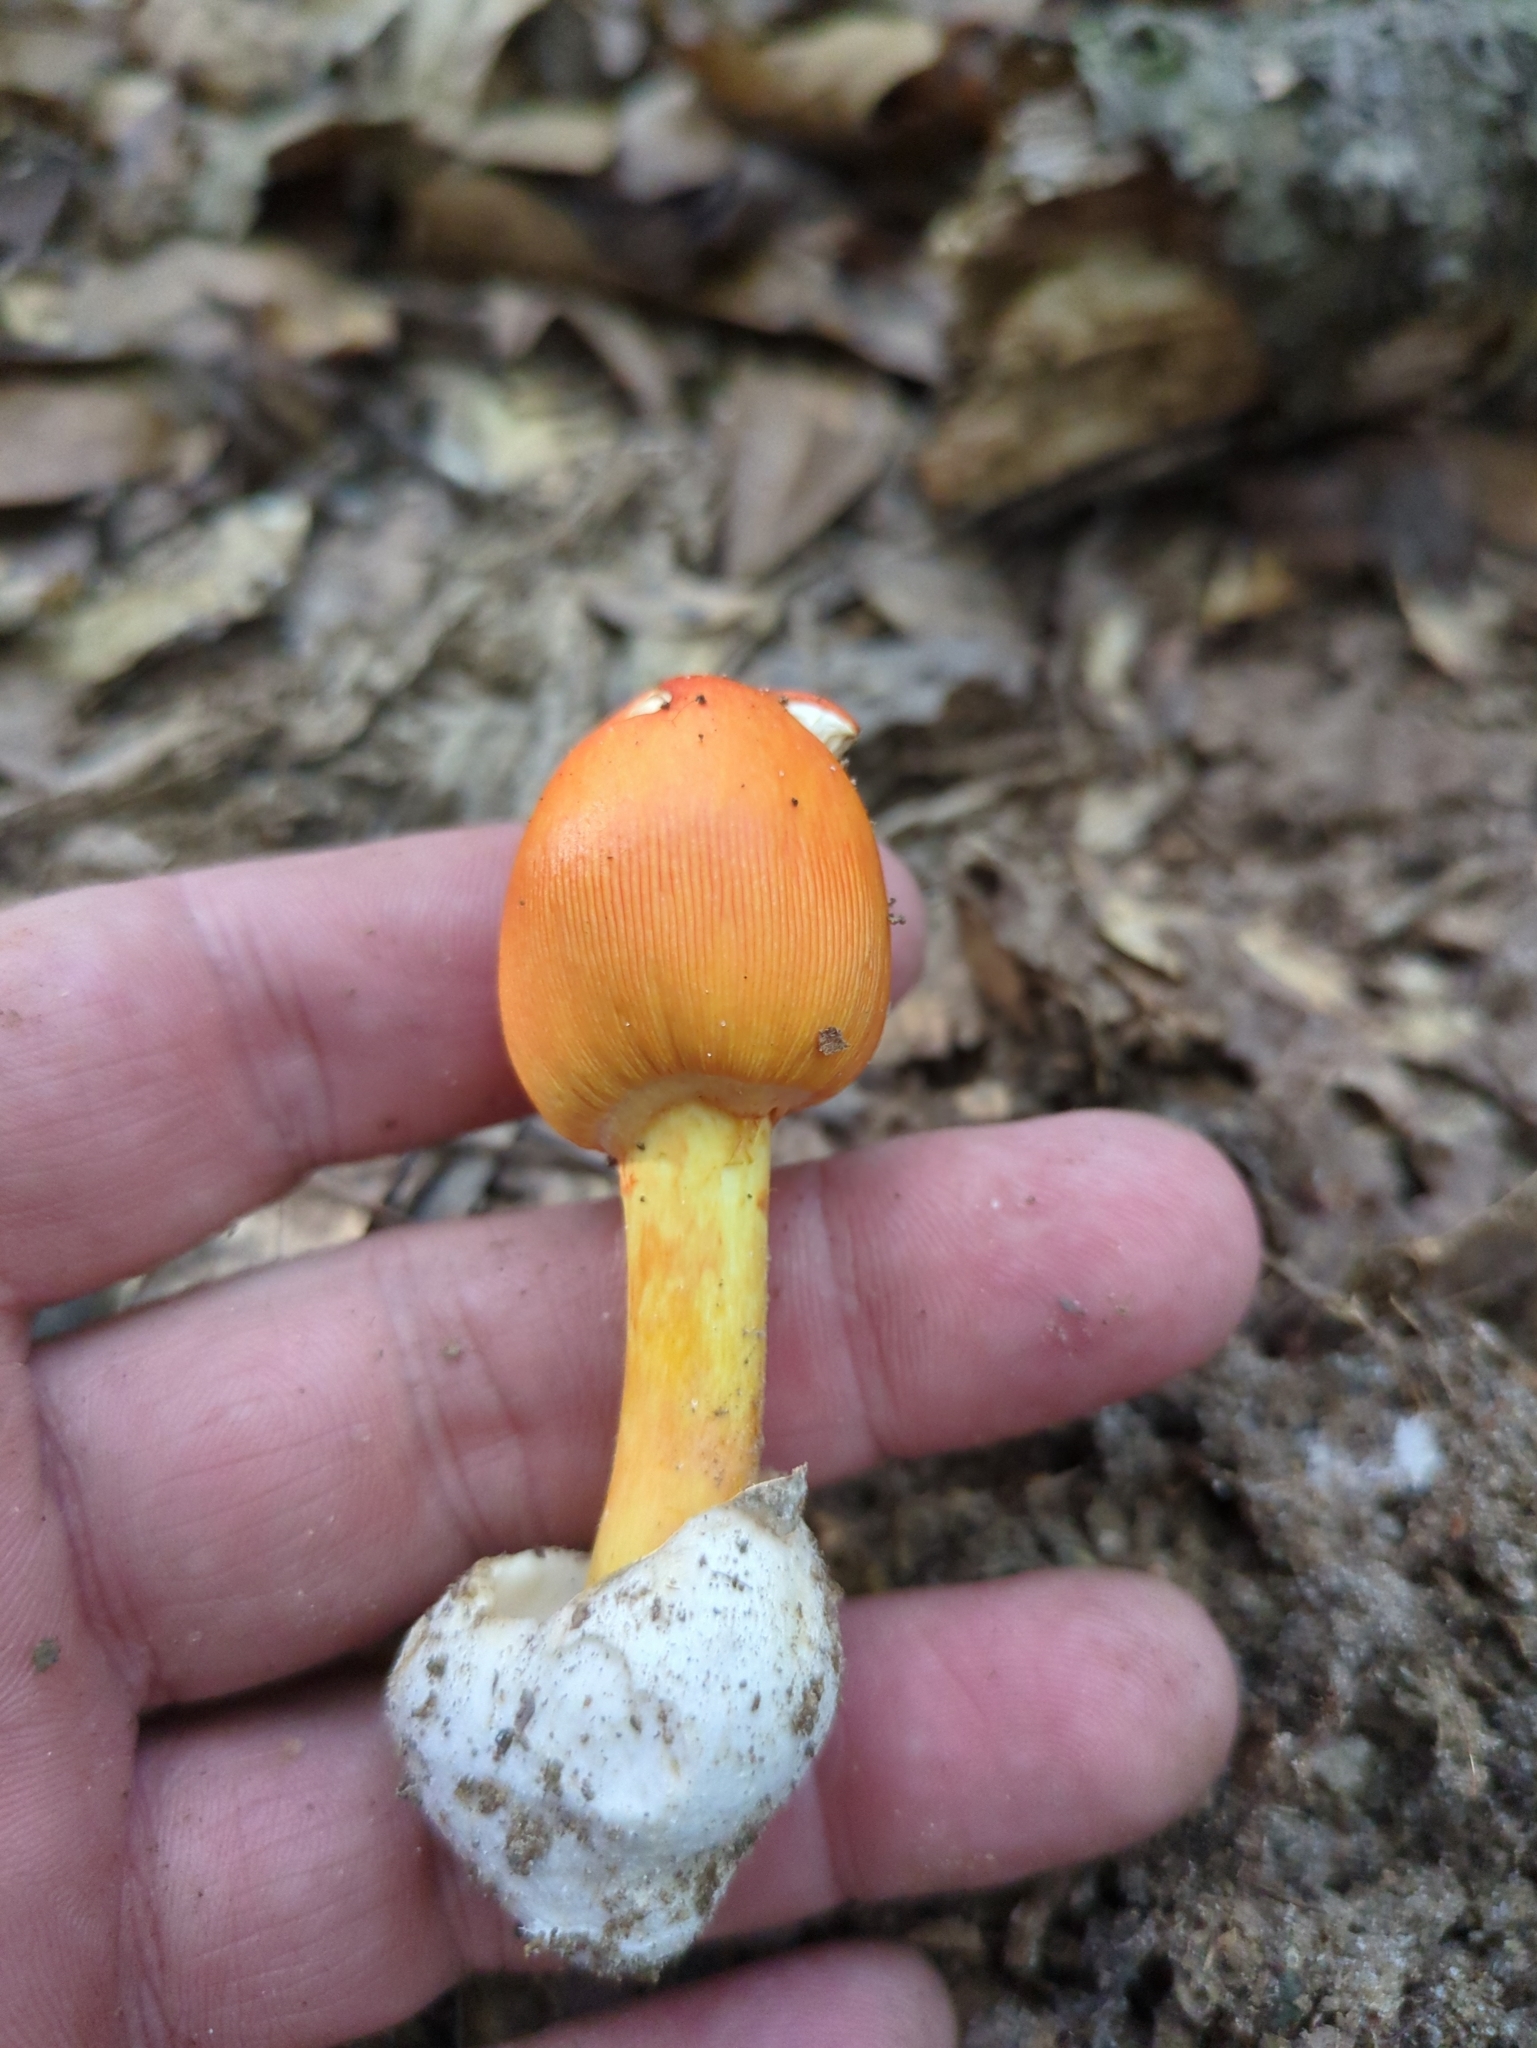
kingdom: Fungi
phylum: Basidiomycota
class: Agaricomycetes
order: Agaricales
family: Amanitaceae
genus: Amanita
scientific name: Amanita jacksonii
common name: Jackson's slender caesar
